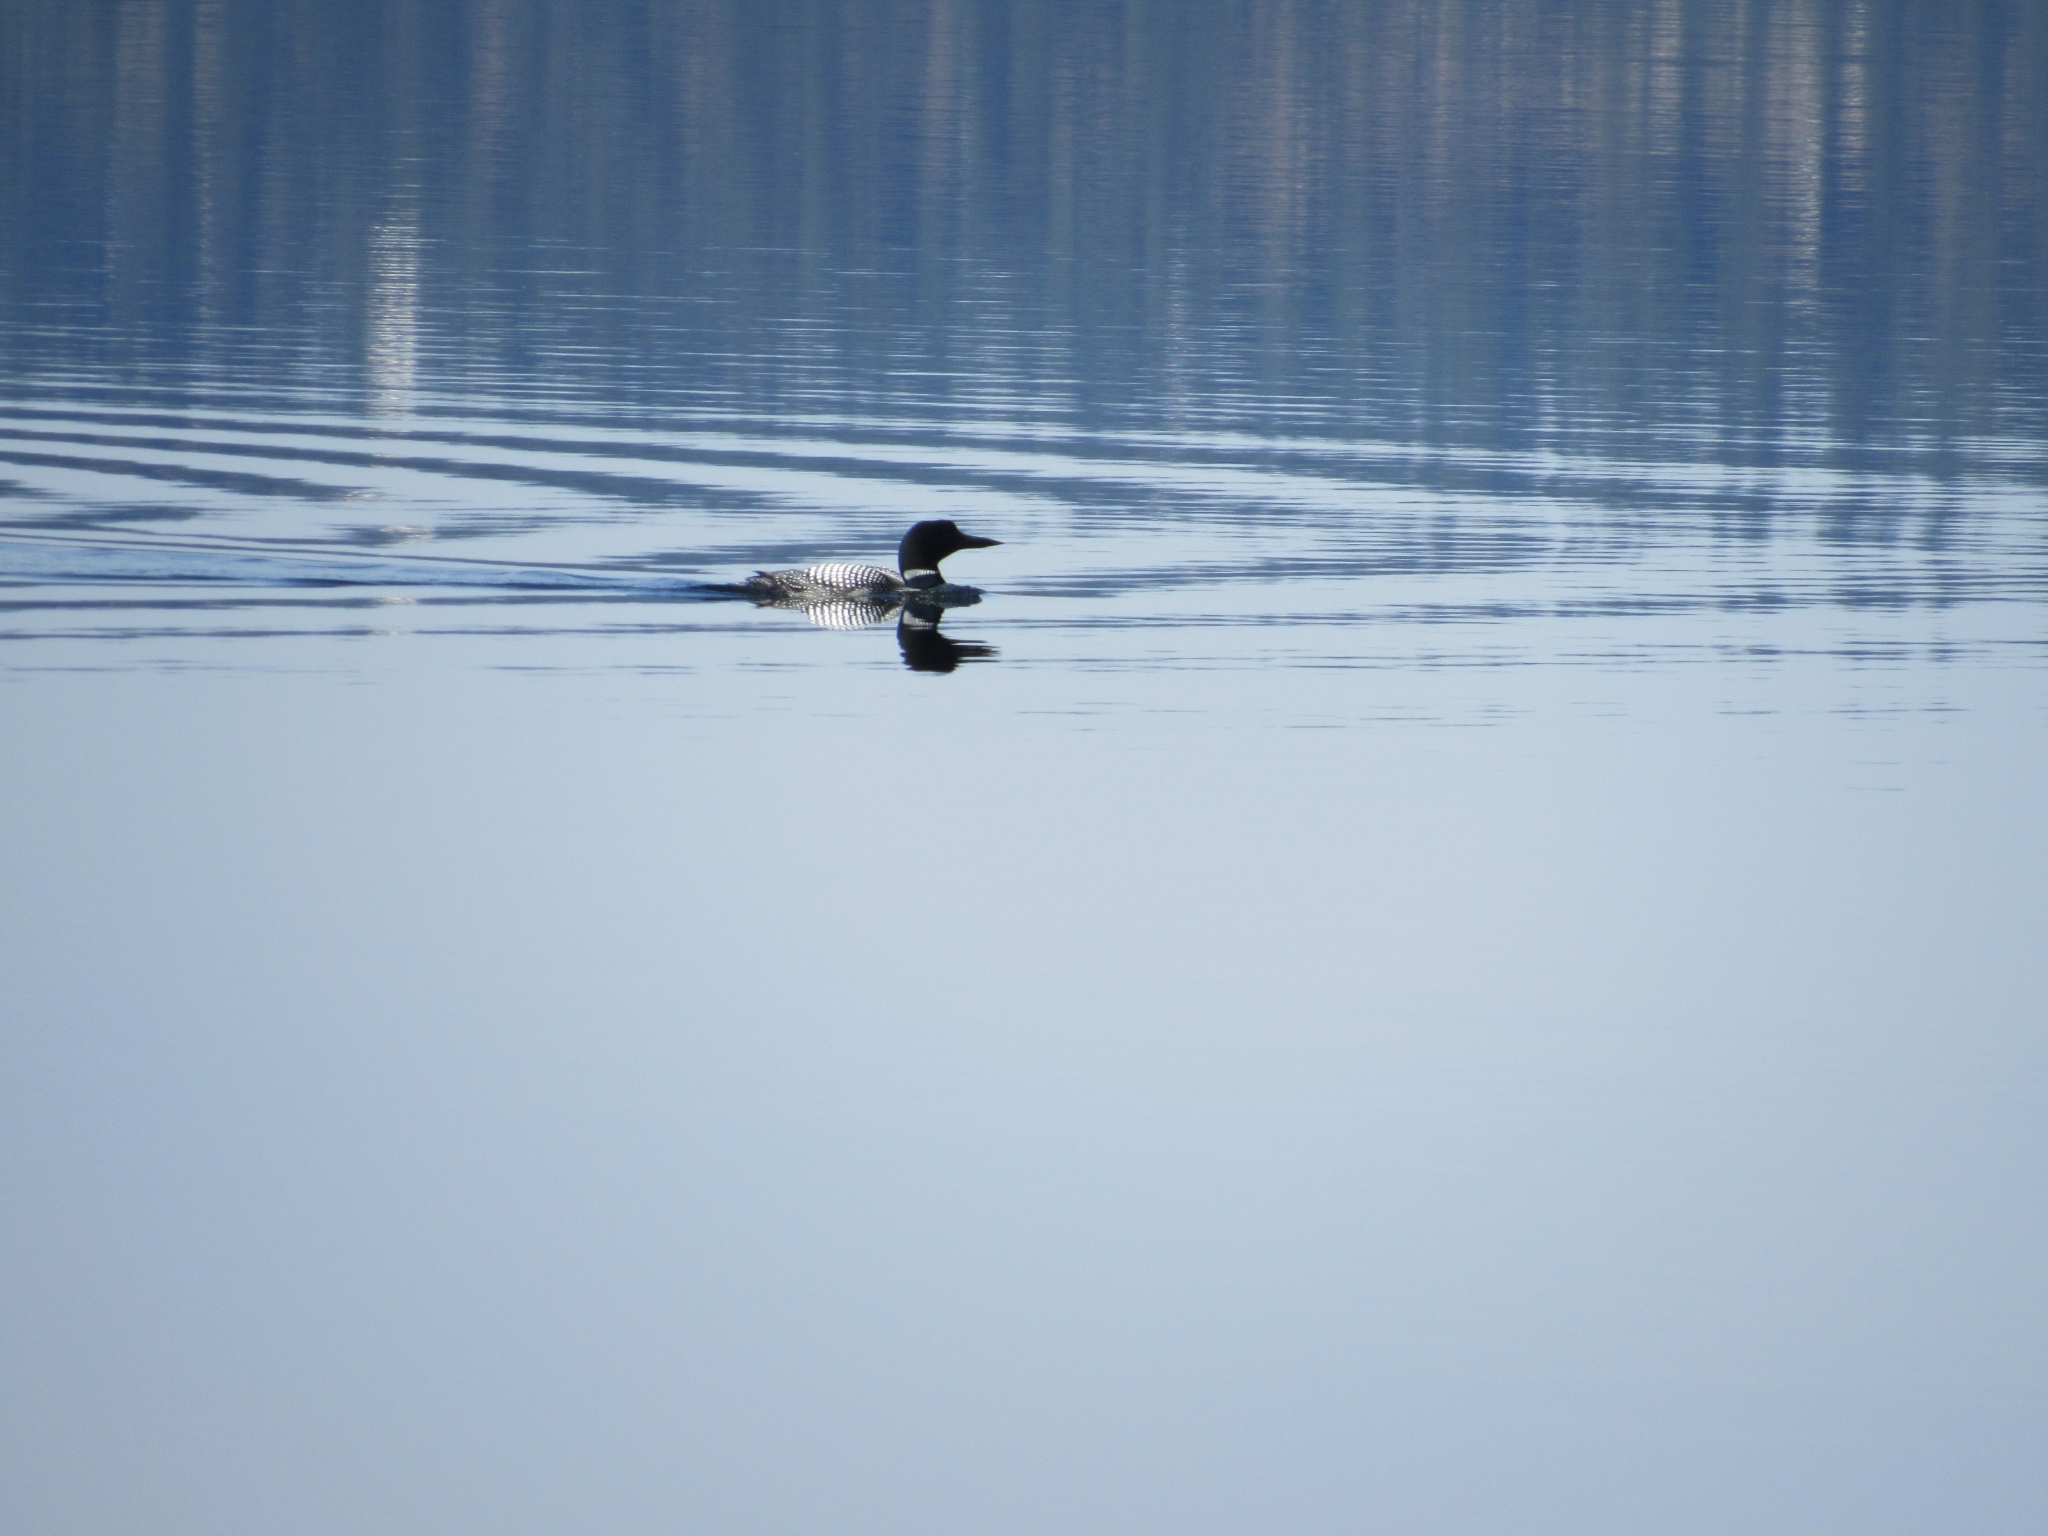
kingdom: Animalia
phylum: Chordata
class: Aves
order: Gaviiformes
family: Gaviidae
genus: Gavia
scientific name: Gavia immer
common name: Common loon
